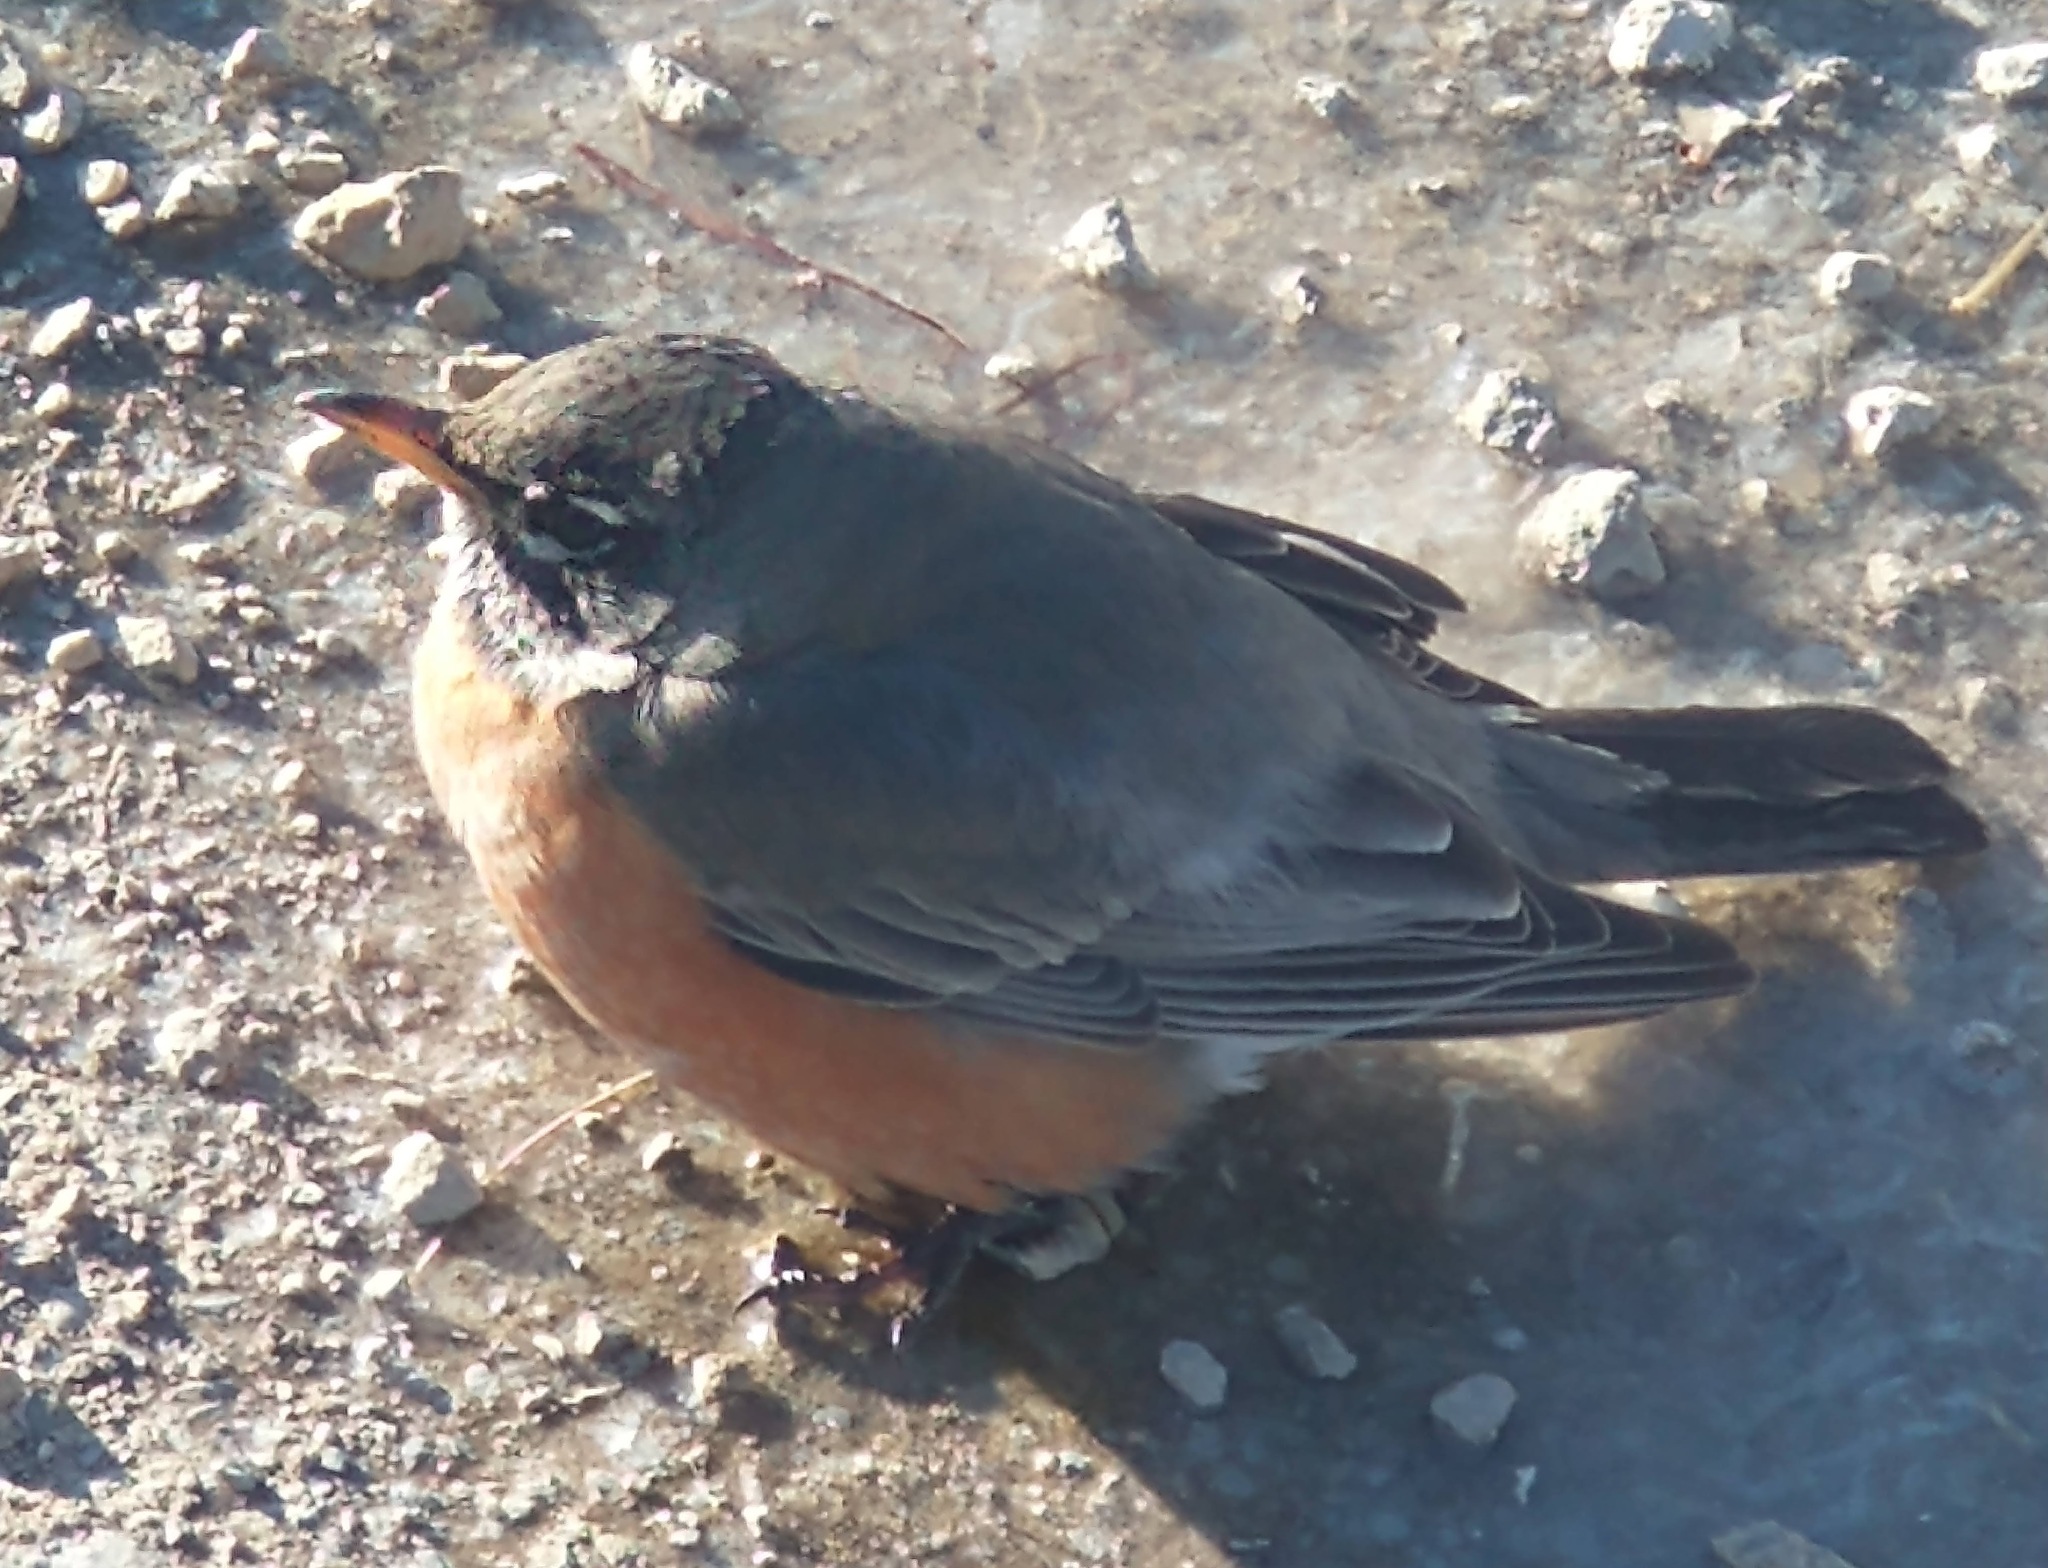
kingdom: Animalia
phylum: Chordata
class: Aves
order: Passeriformes
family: Turdidae
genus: Turdus
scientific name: Turdus migratorius
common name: American robin
